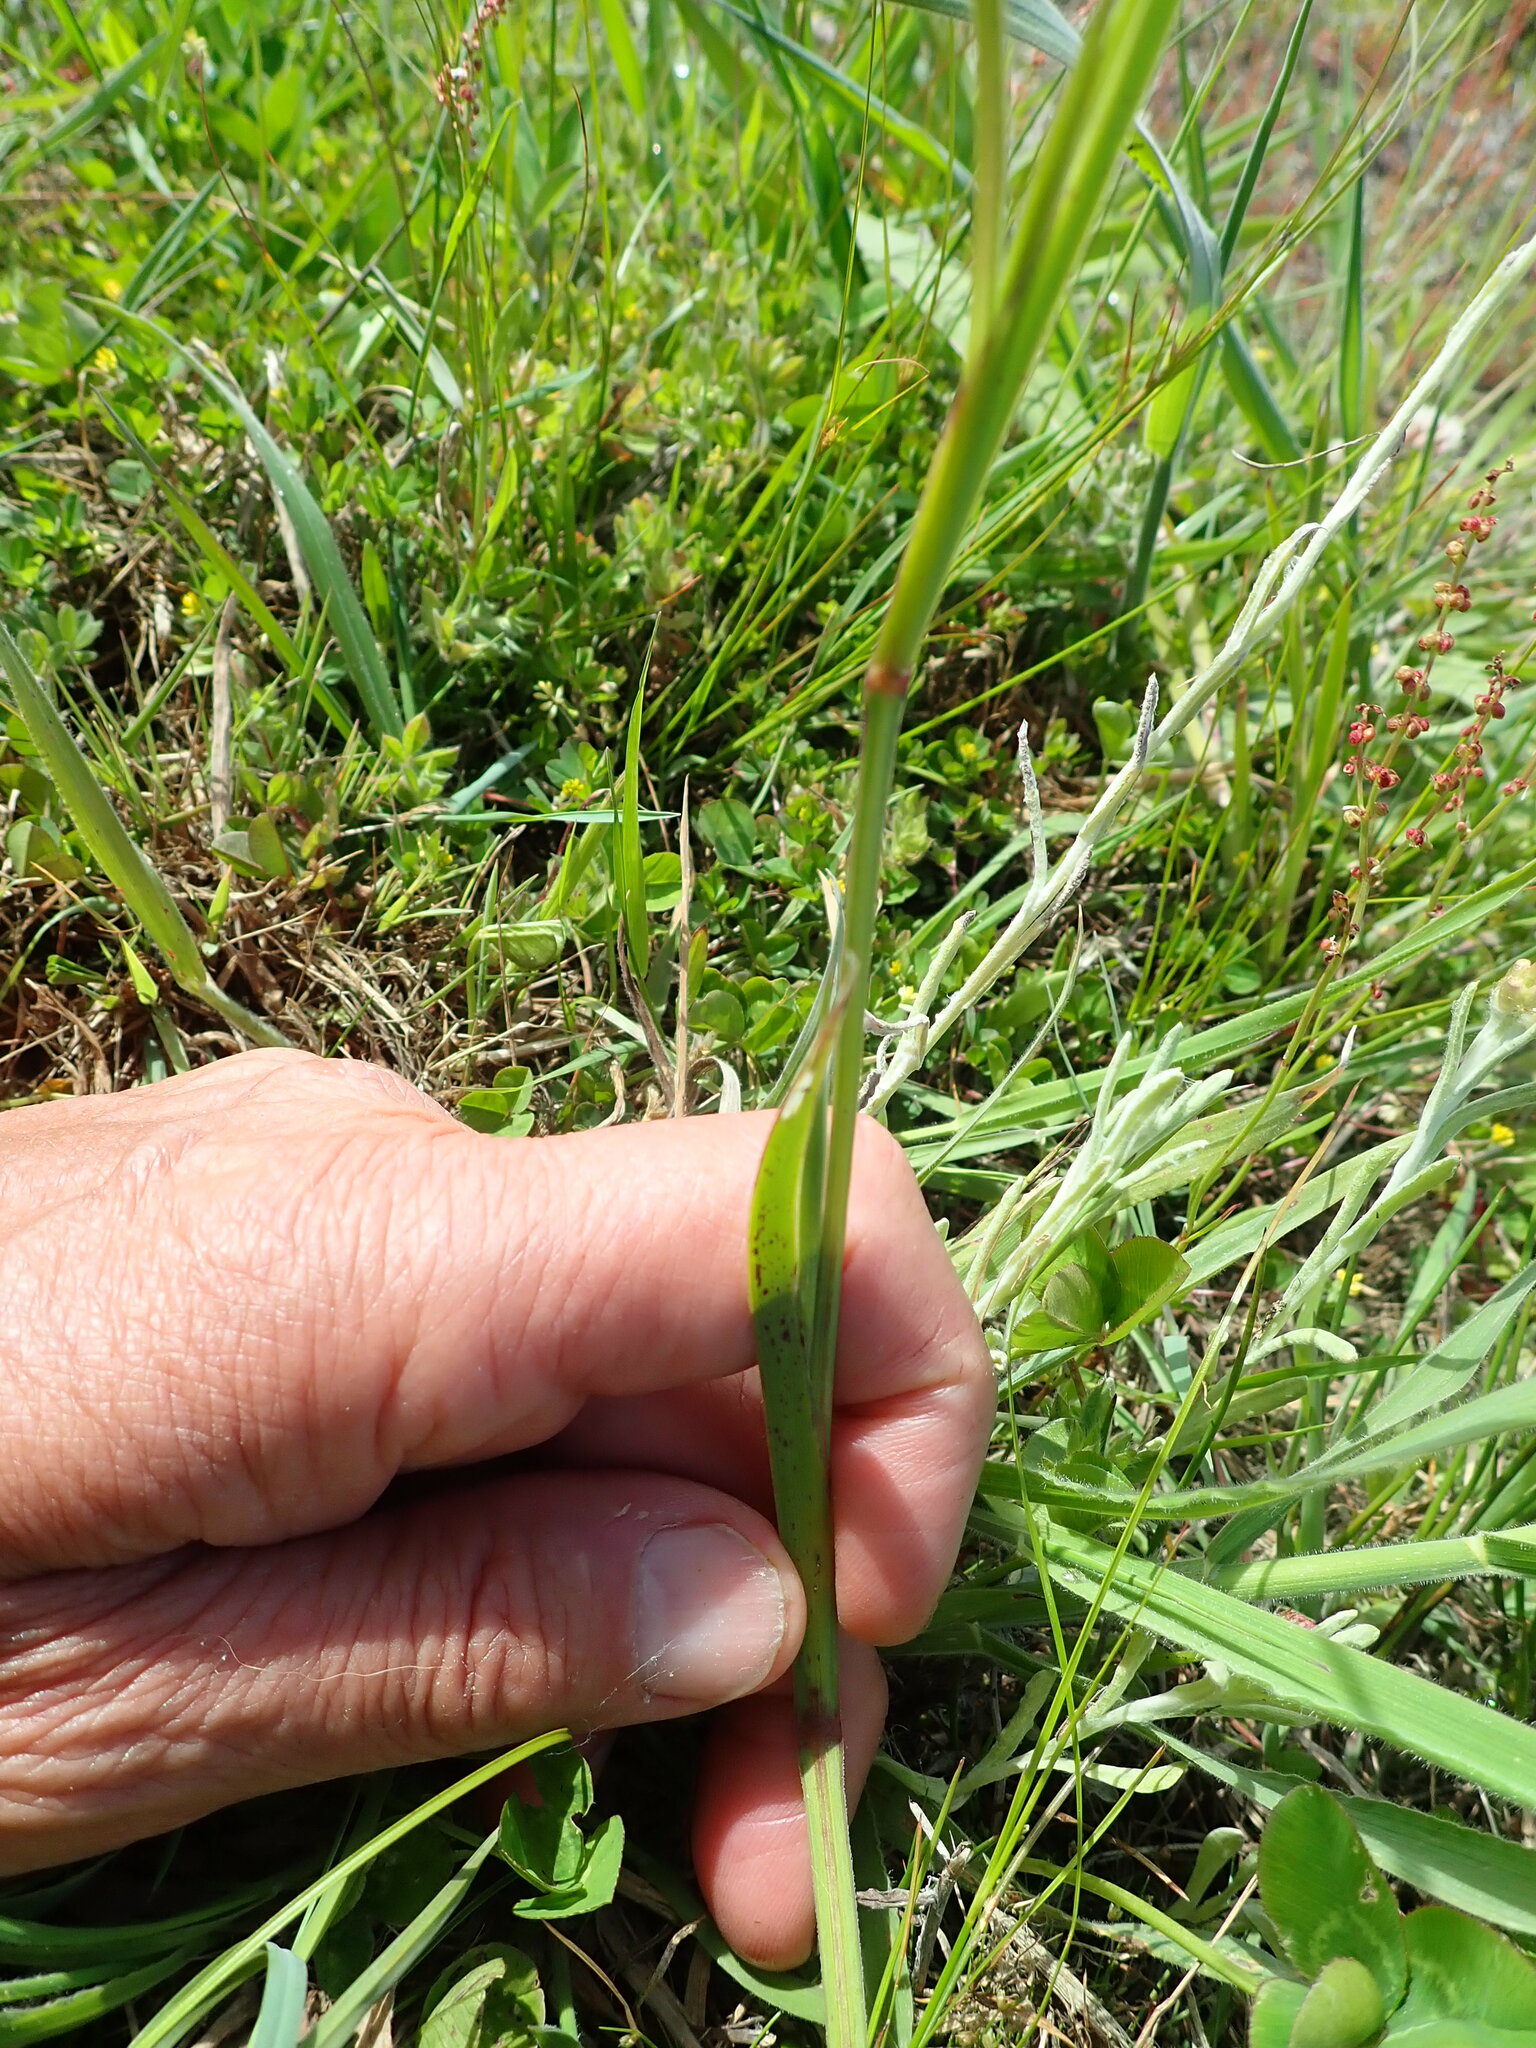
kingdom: Plantae
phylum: Tracheophyta
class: Liliopsida
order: Asparagales
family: Iridaceae
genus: Sisyrinchium
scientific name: Sisyrinchium micranthum
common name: Bermuda pigroot
